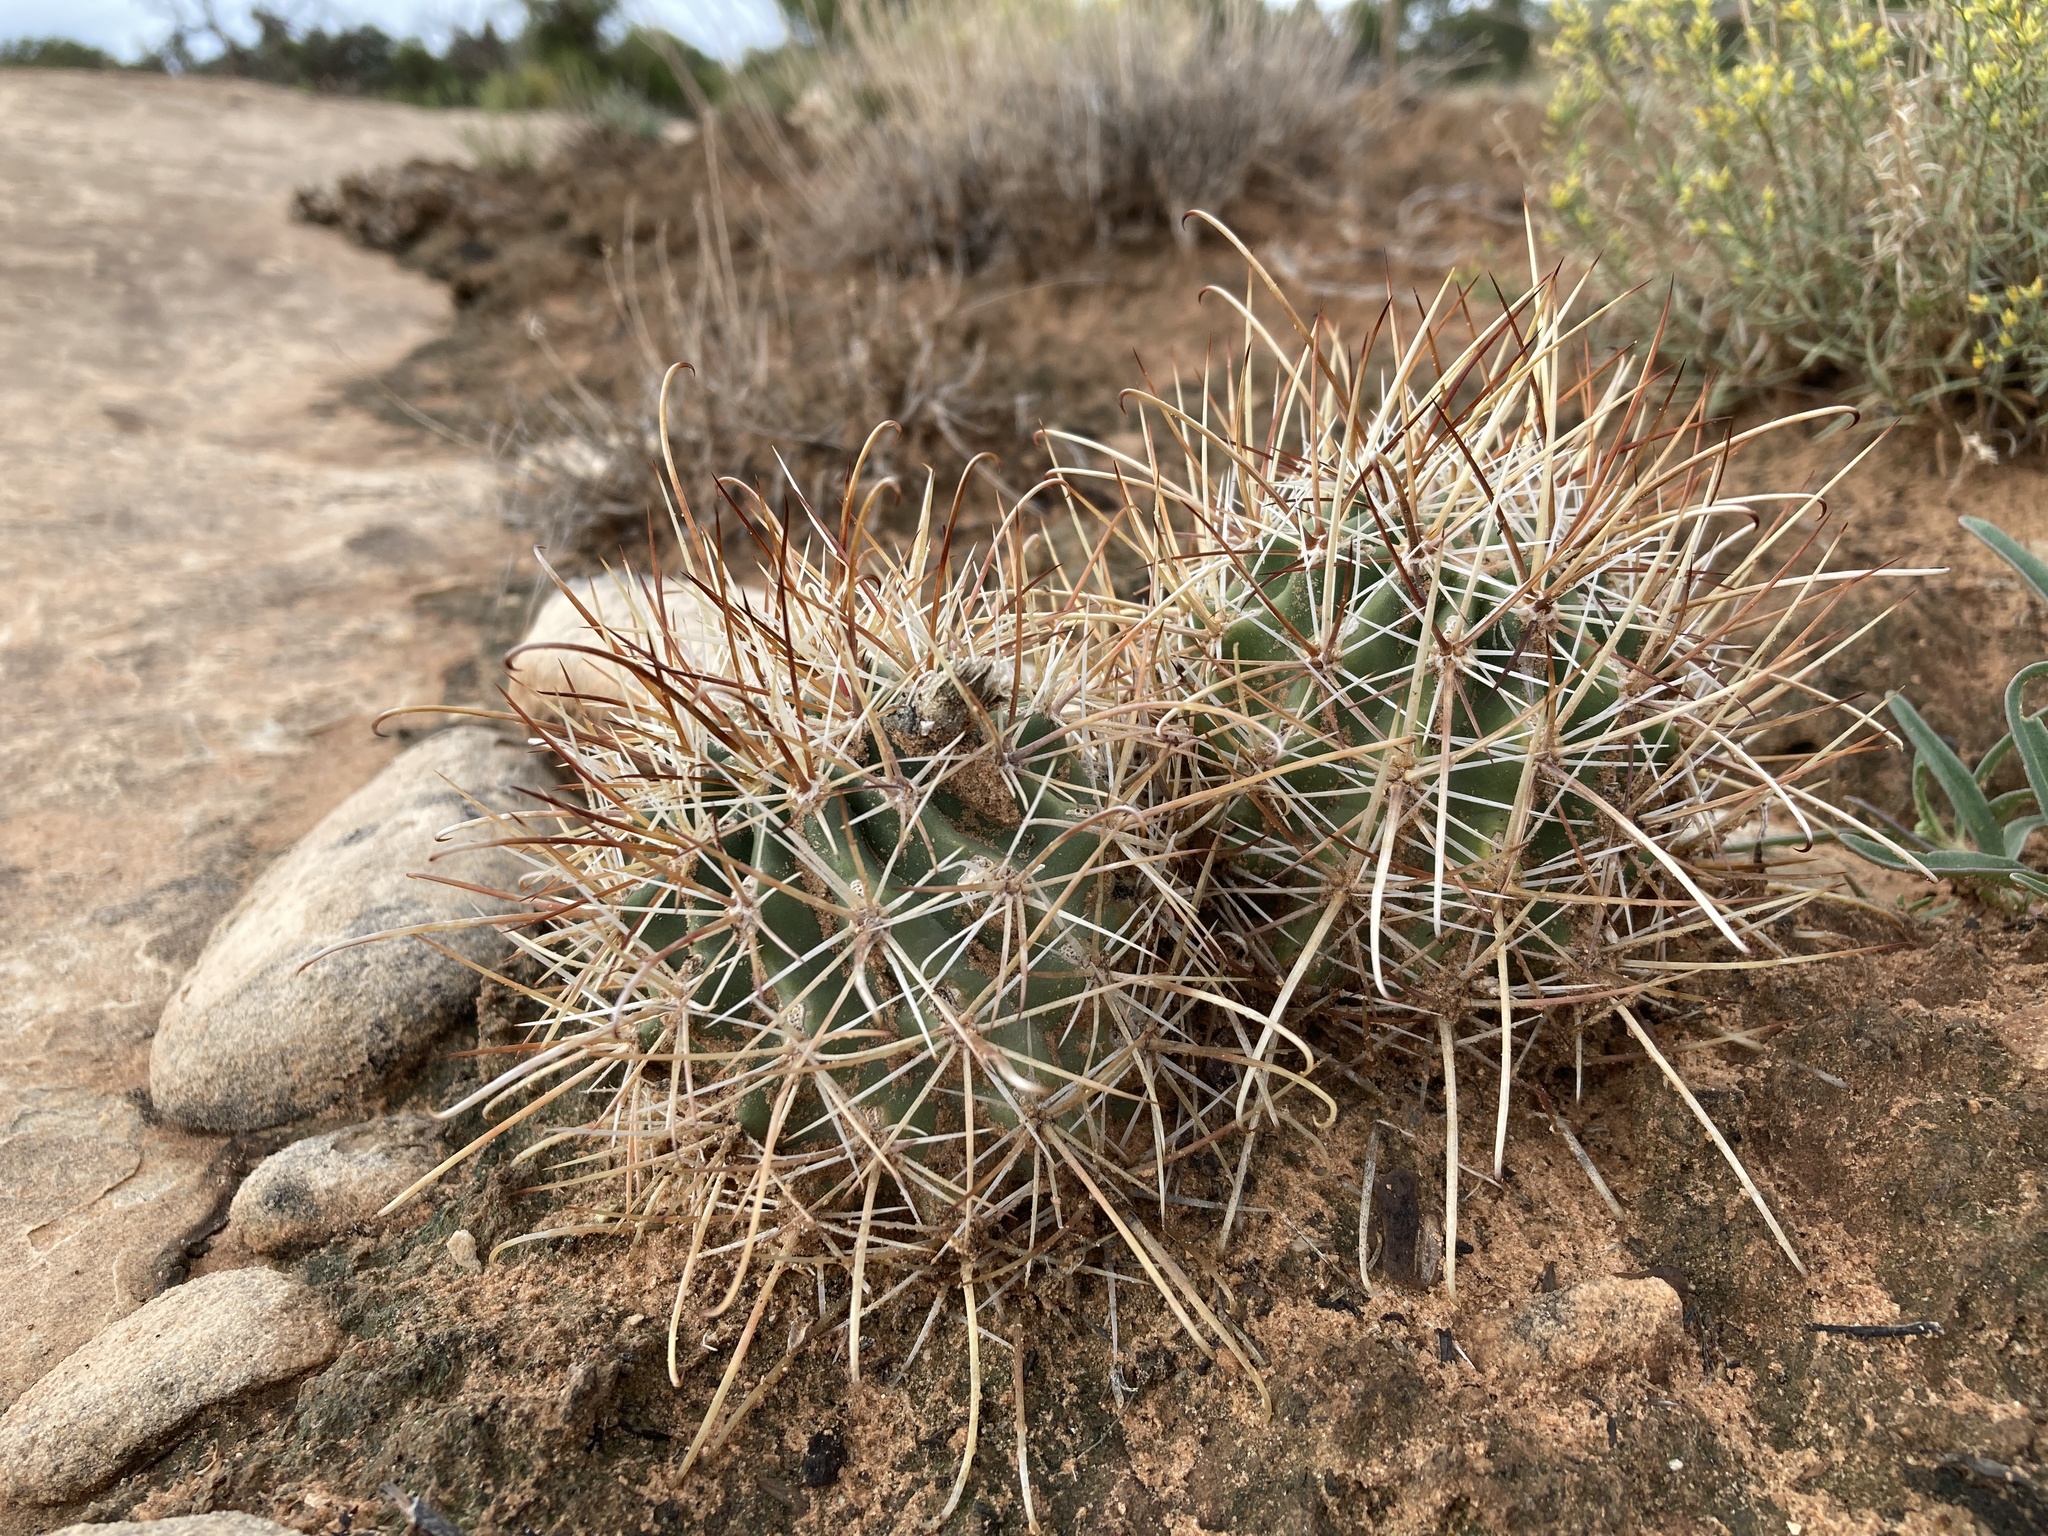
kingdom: Plantae
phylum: Tracheophyta
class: Magnoliopsida
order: Caryophyllales
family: Cactaceae
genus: Sclerocactus
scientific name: Sclerocactus parviflorus
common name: Small-flower fishhook cactus
